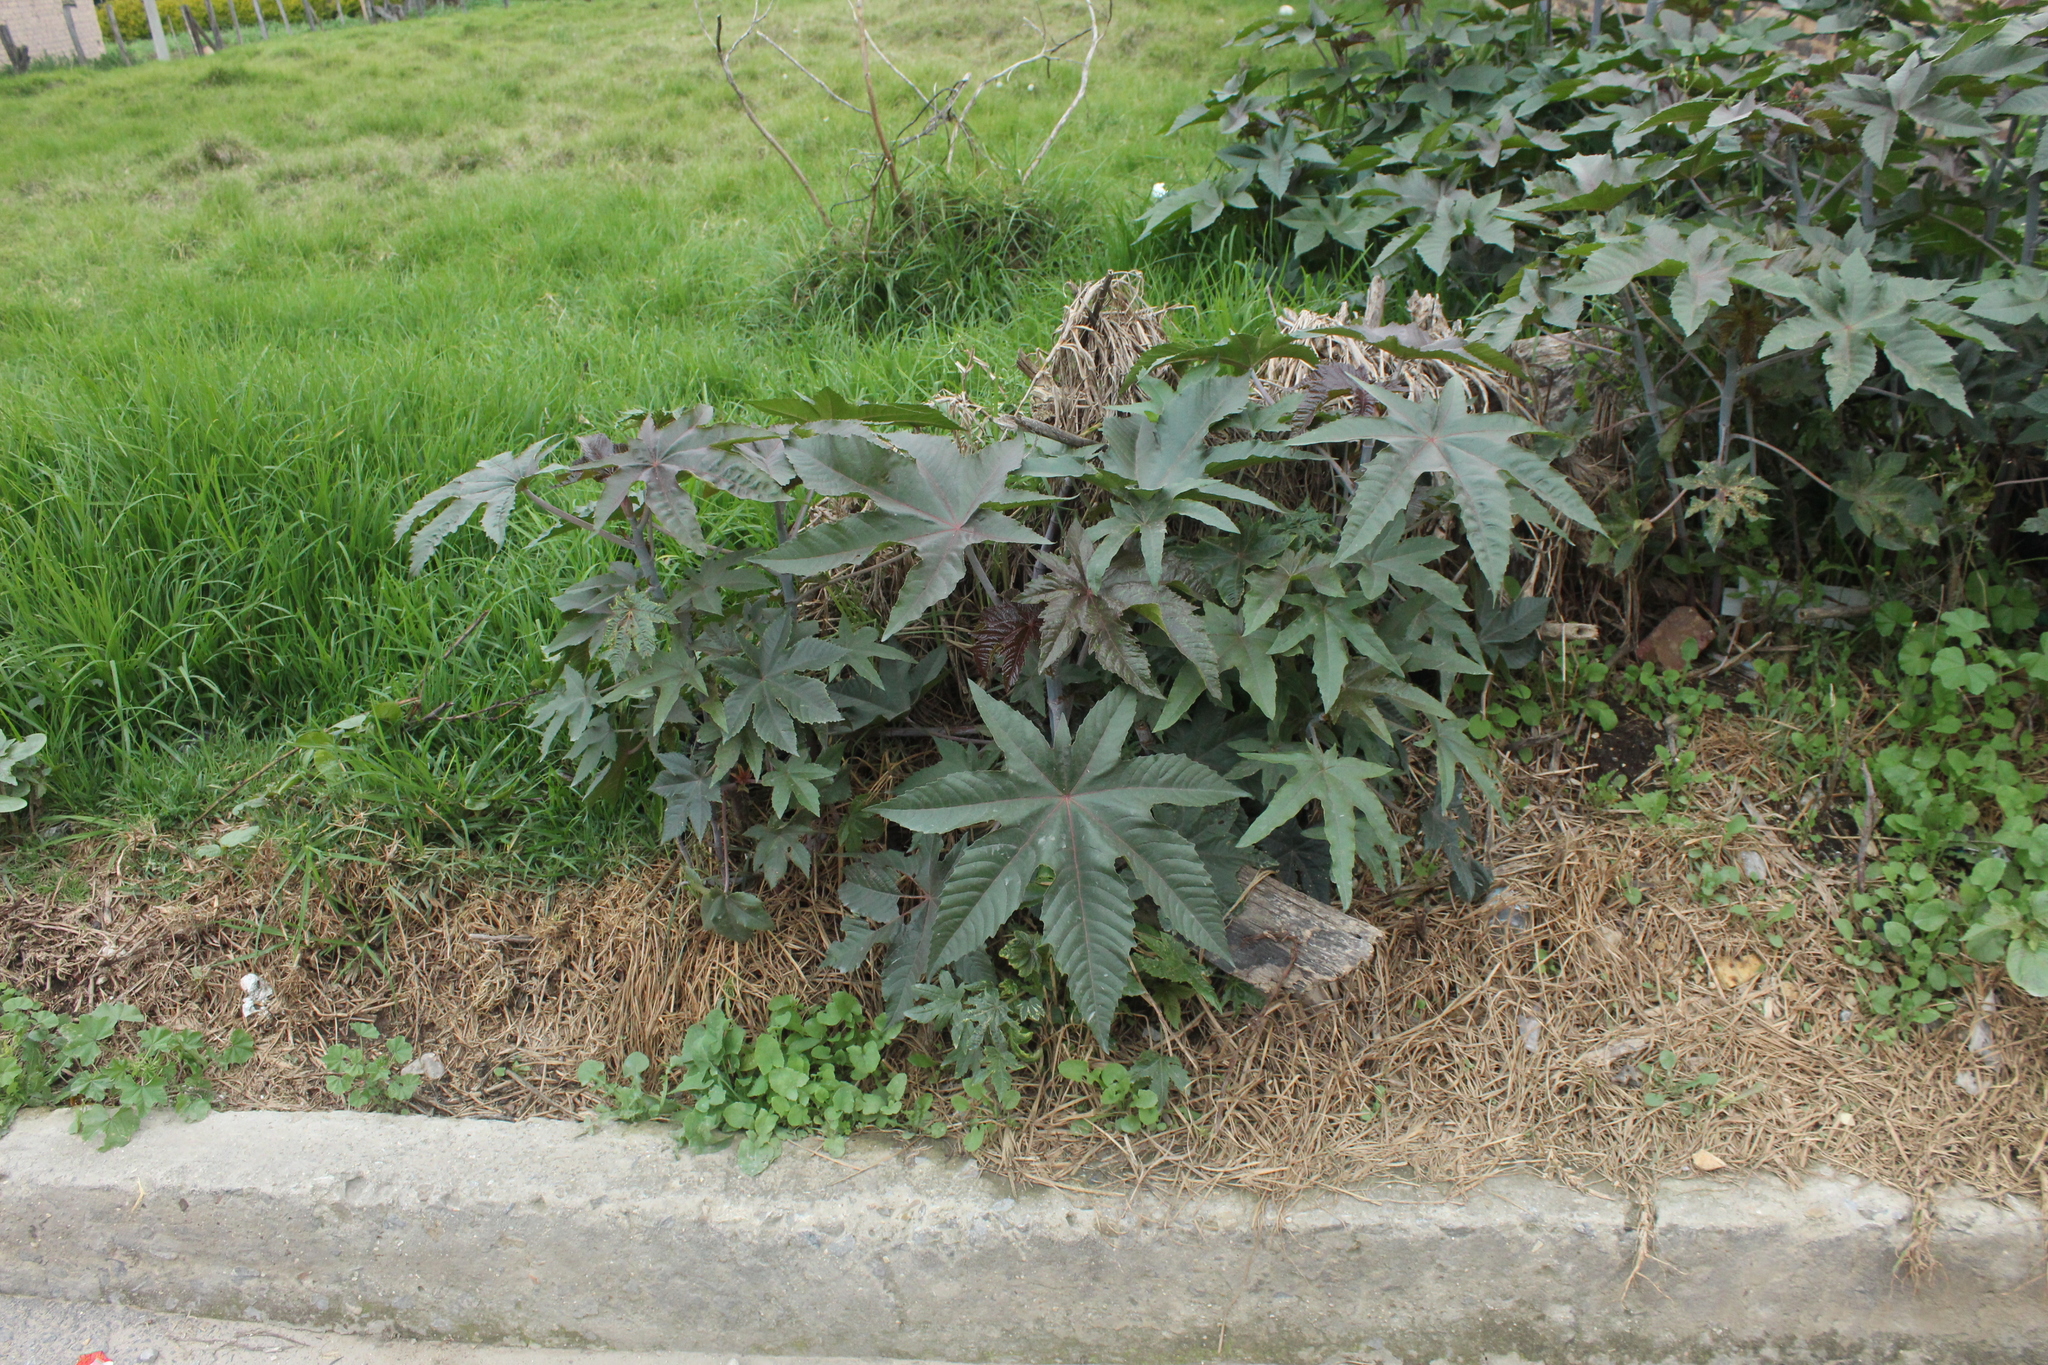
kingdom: Plantae
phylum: Tracheophyta
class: Magnoliopsida
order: Malpighiales
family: Euphorbiaceae
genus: Ricinus
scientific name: Ricinus communis
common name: Castor-oil-plant
